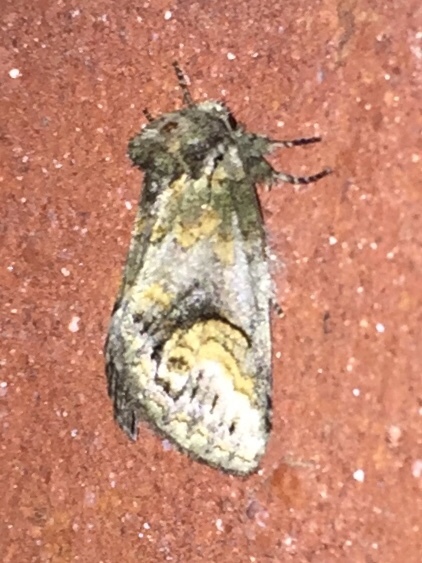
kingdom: Animalia
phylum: Arthropoda
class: Insecta
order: Lepidoptera
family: Notodontidae
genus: Rifargia
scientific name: Rifargia
